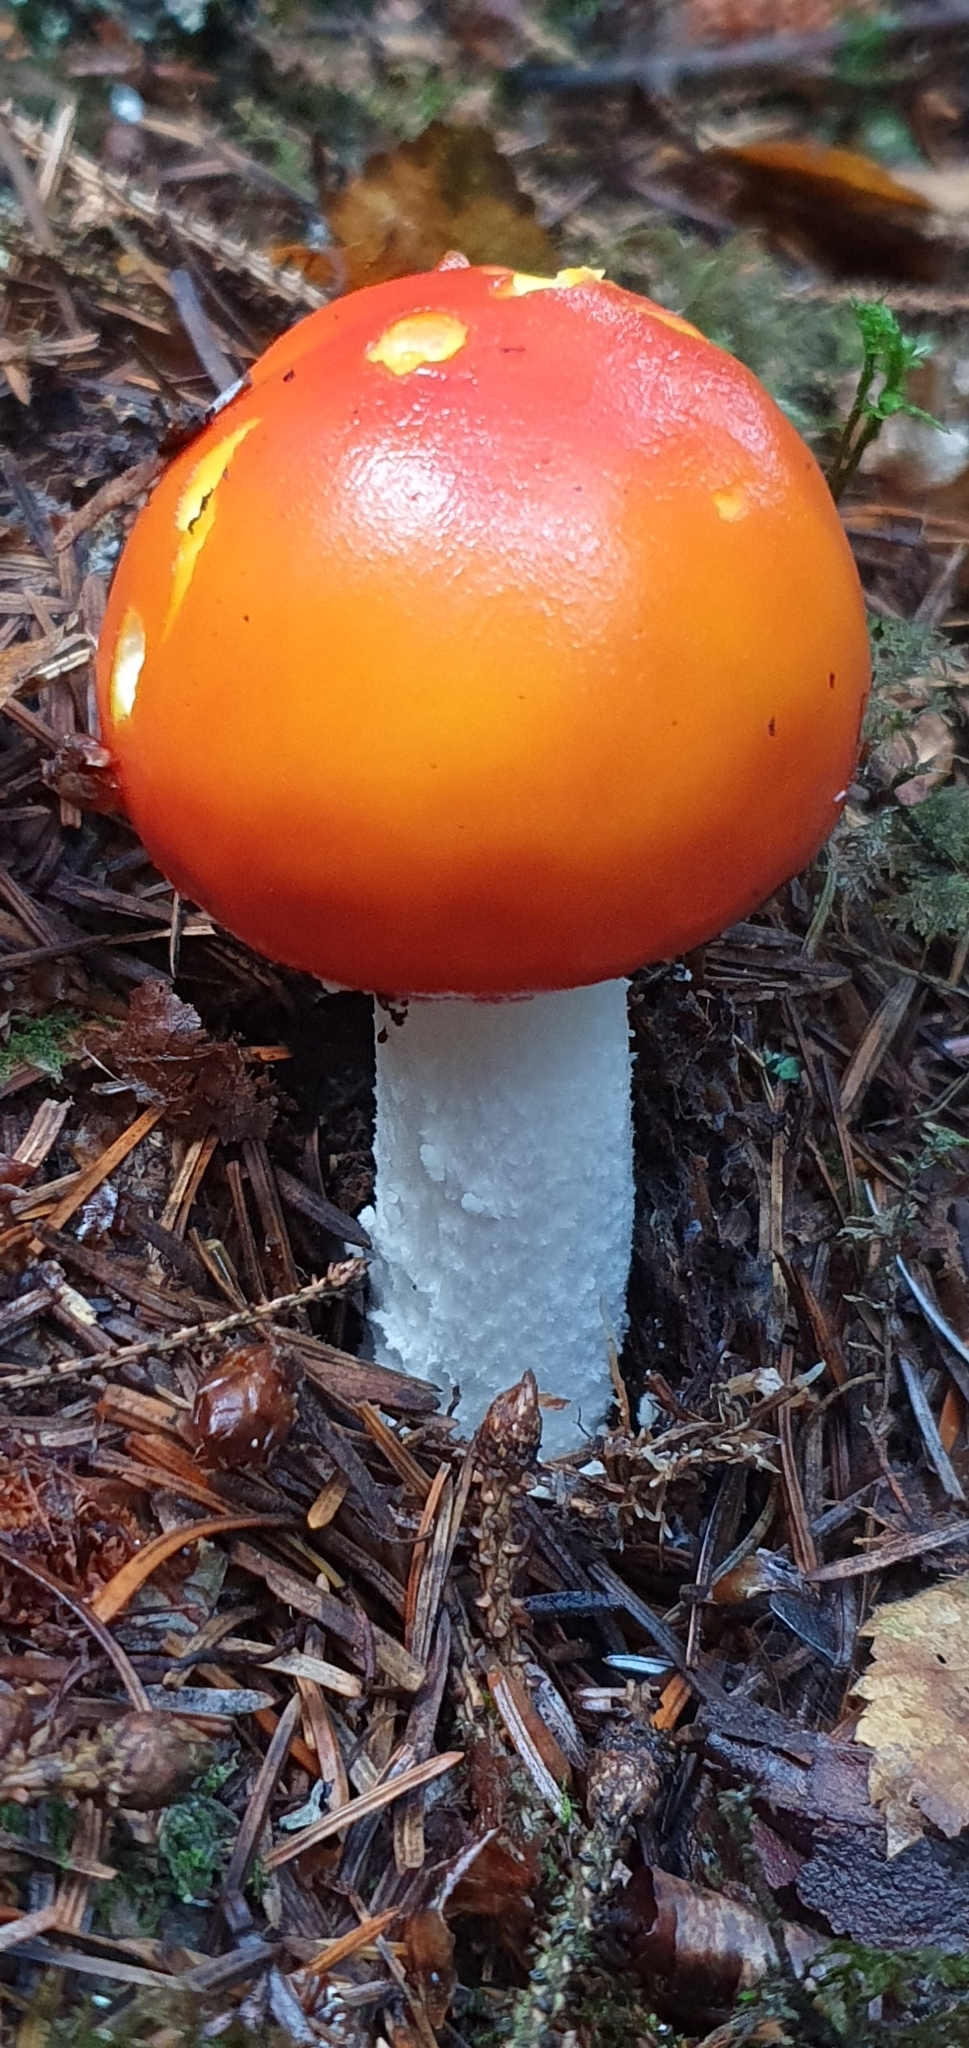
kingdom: Fungi
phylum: Basidiomycota
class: Agaricomycetes
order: Agaricales
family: Amanitaceae
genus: Amanita
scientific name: Amanita muscaria
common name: Fly agaric
